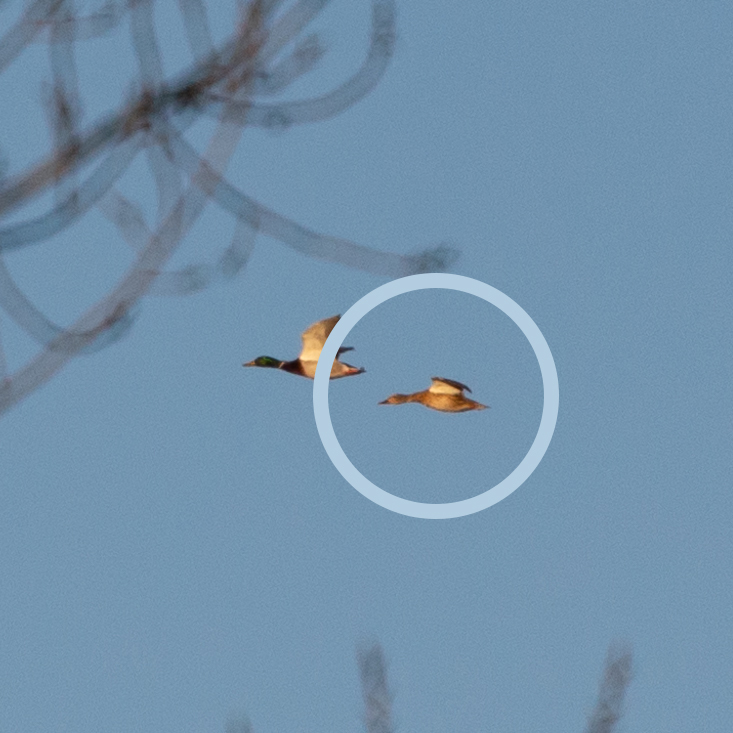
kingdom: Animalia
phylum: Chordata
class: Aves
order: Anseriformes
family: Anatidae
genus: Anas
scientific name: Anas platyrhynchos
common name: Mallard
